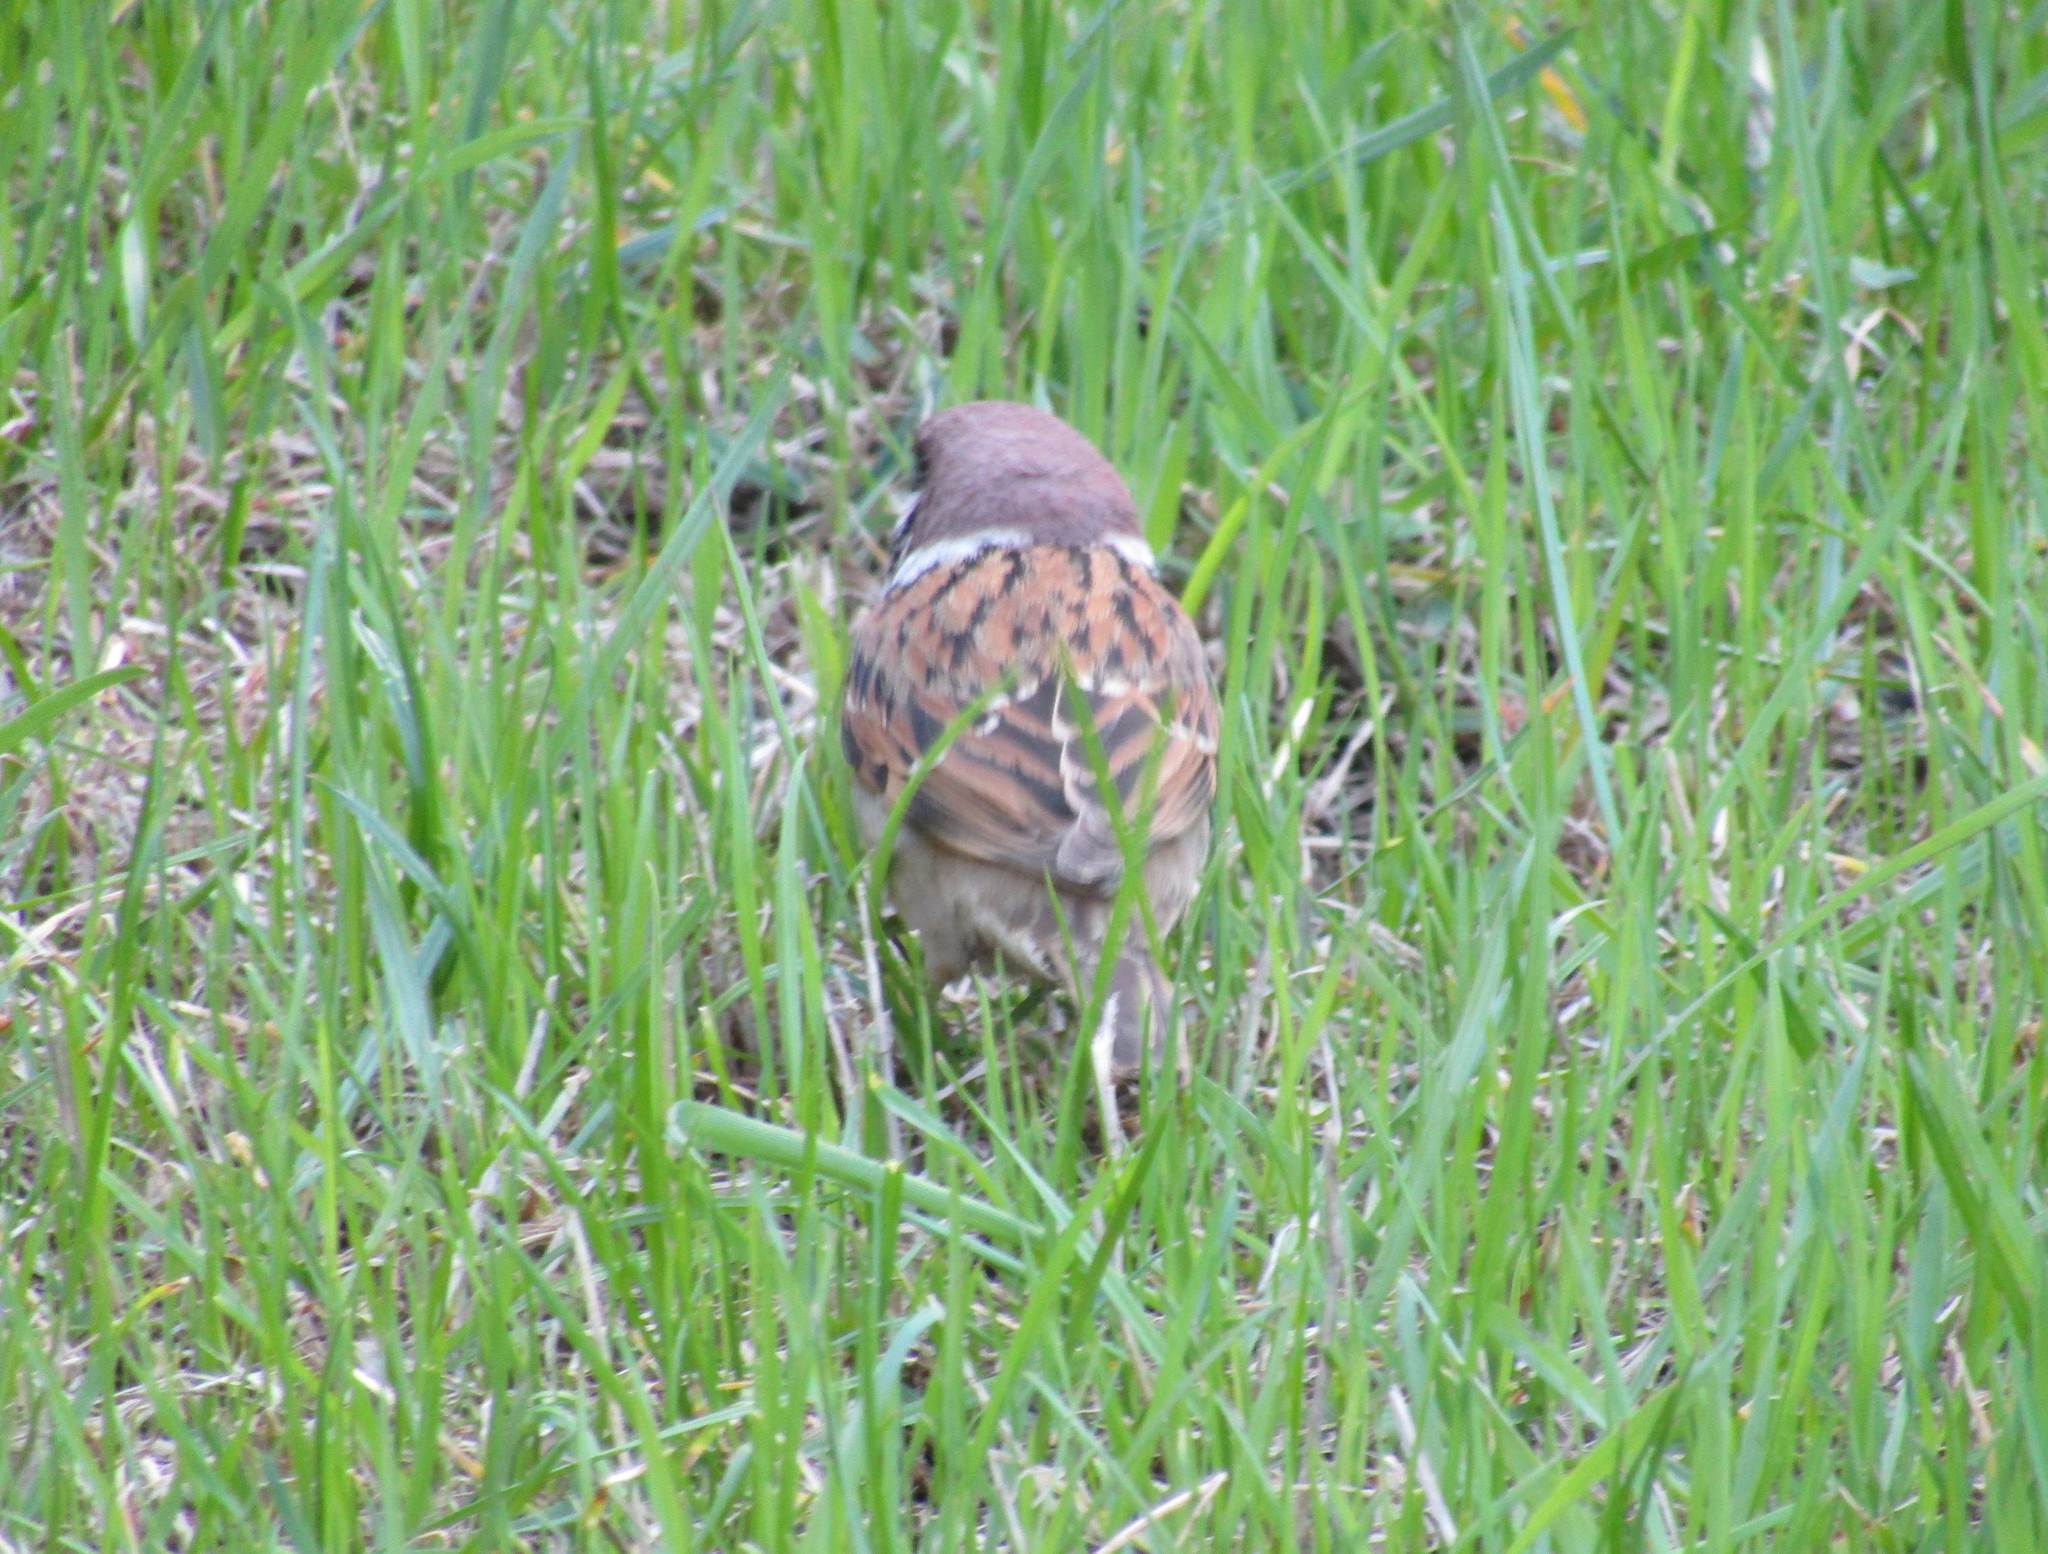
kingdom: Animalia
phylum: Chordata
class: Aves
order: Passeriformes
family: Passeridae
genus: Passer
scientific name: Passer montanus
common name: Eurasian tree sparrow
